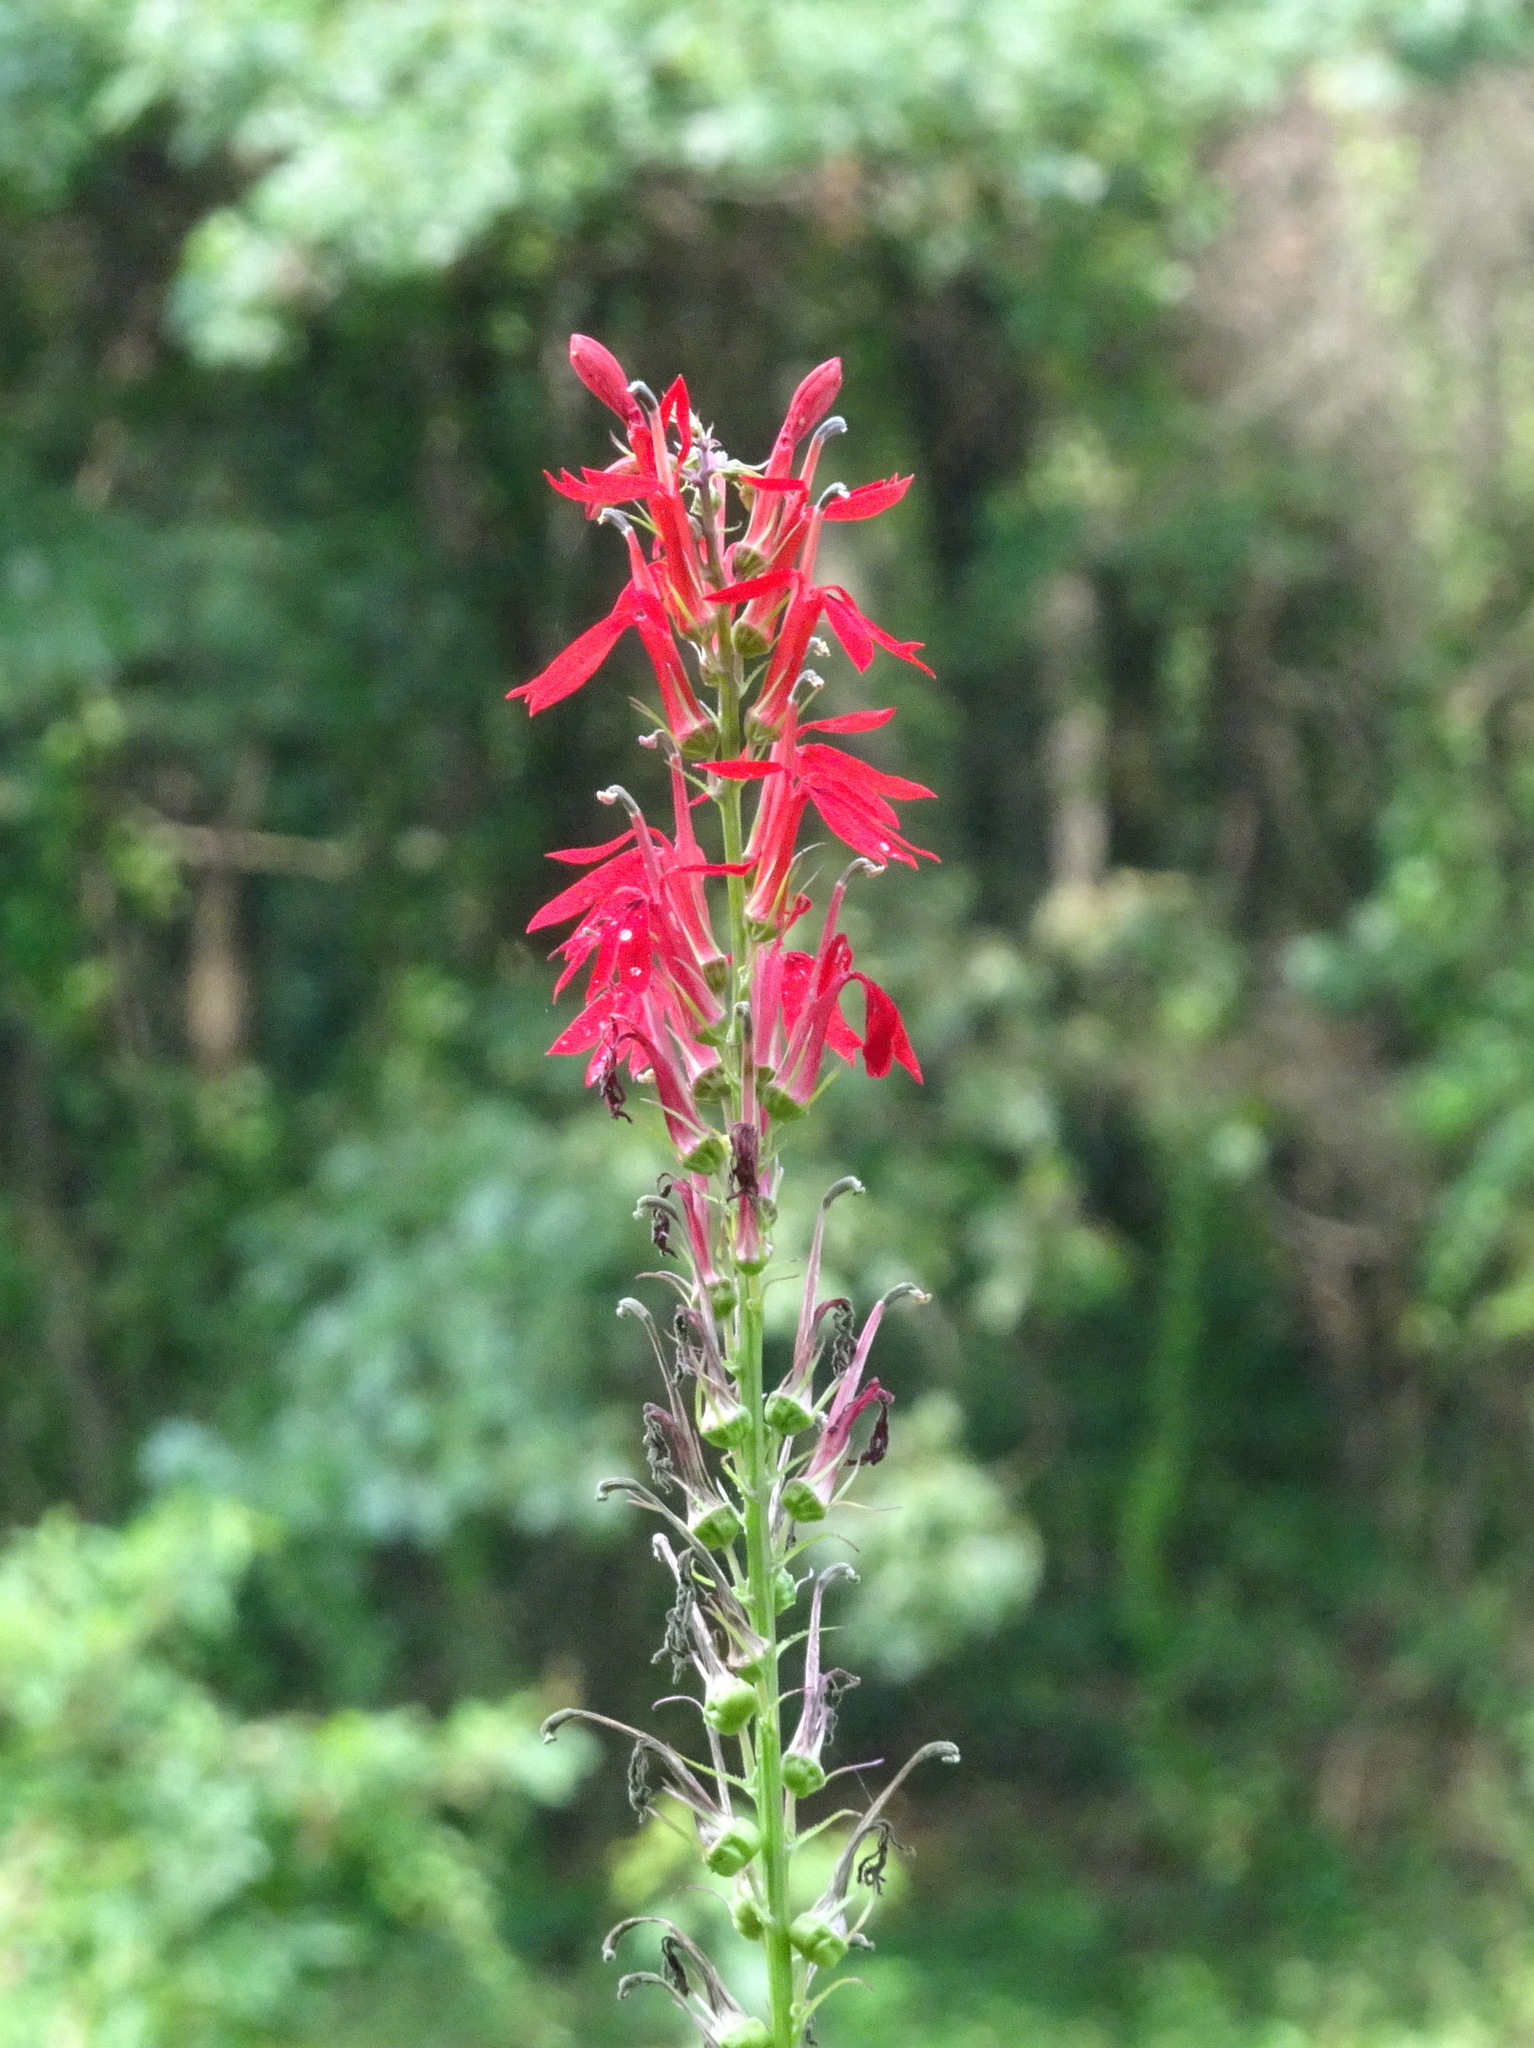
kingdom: Plantae
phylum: Tracheophyta
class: Magnoliopsida
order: Asterales
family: Campanulaceae
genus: Lobelia
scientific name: Lobelia cardinalis
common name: Cardinal flower
